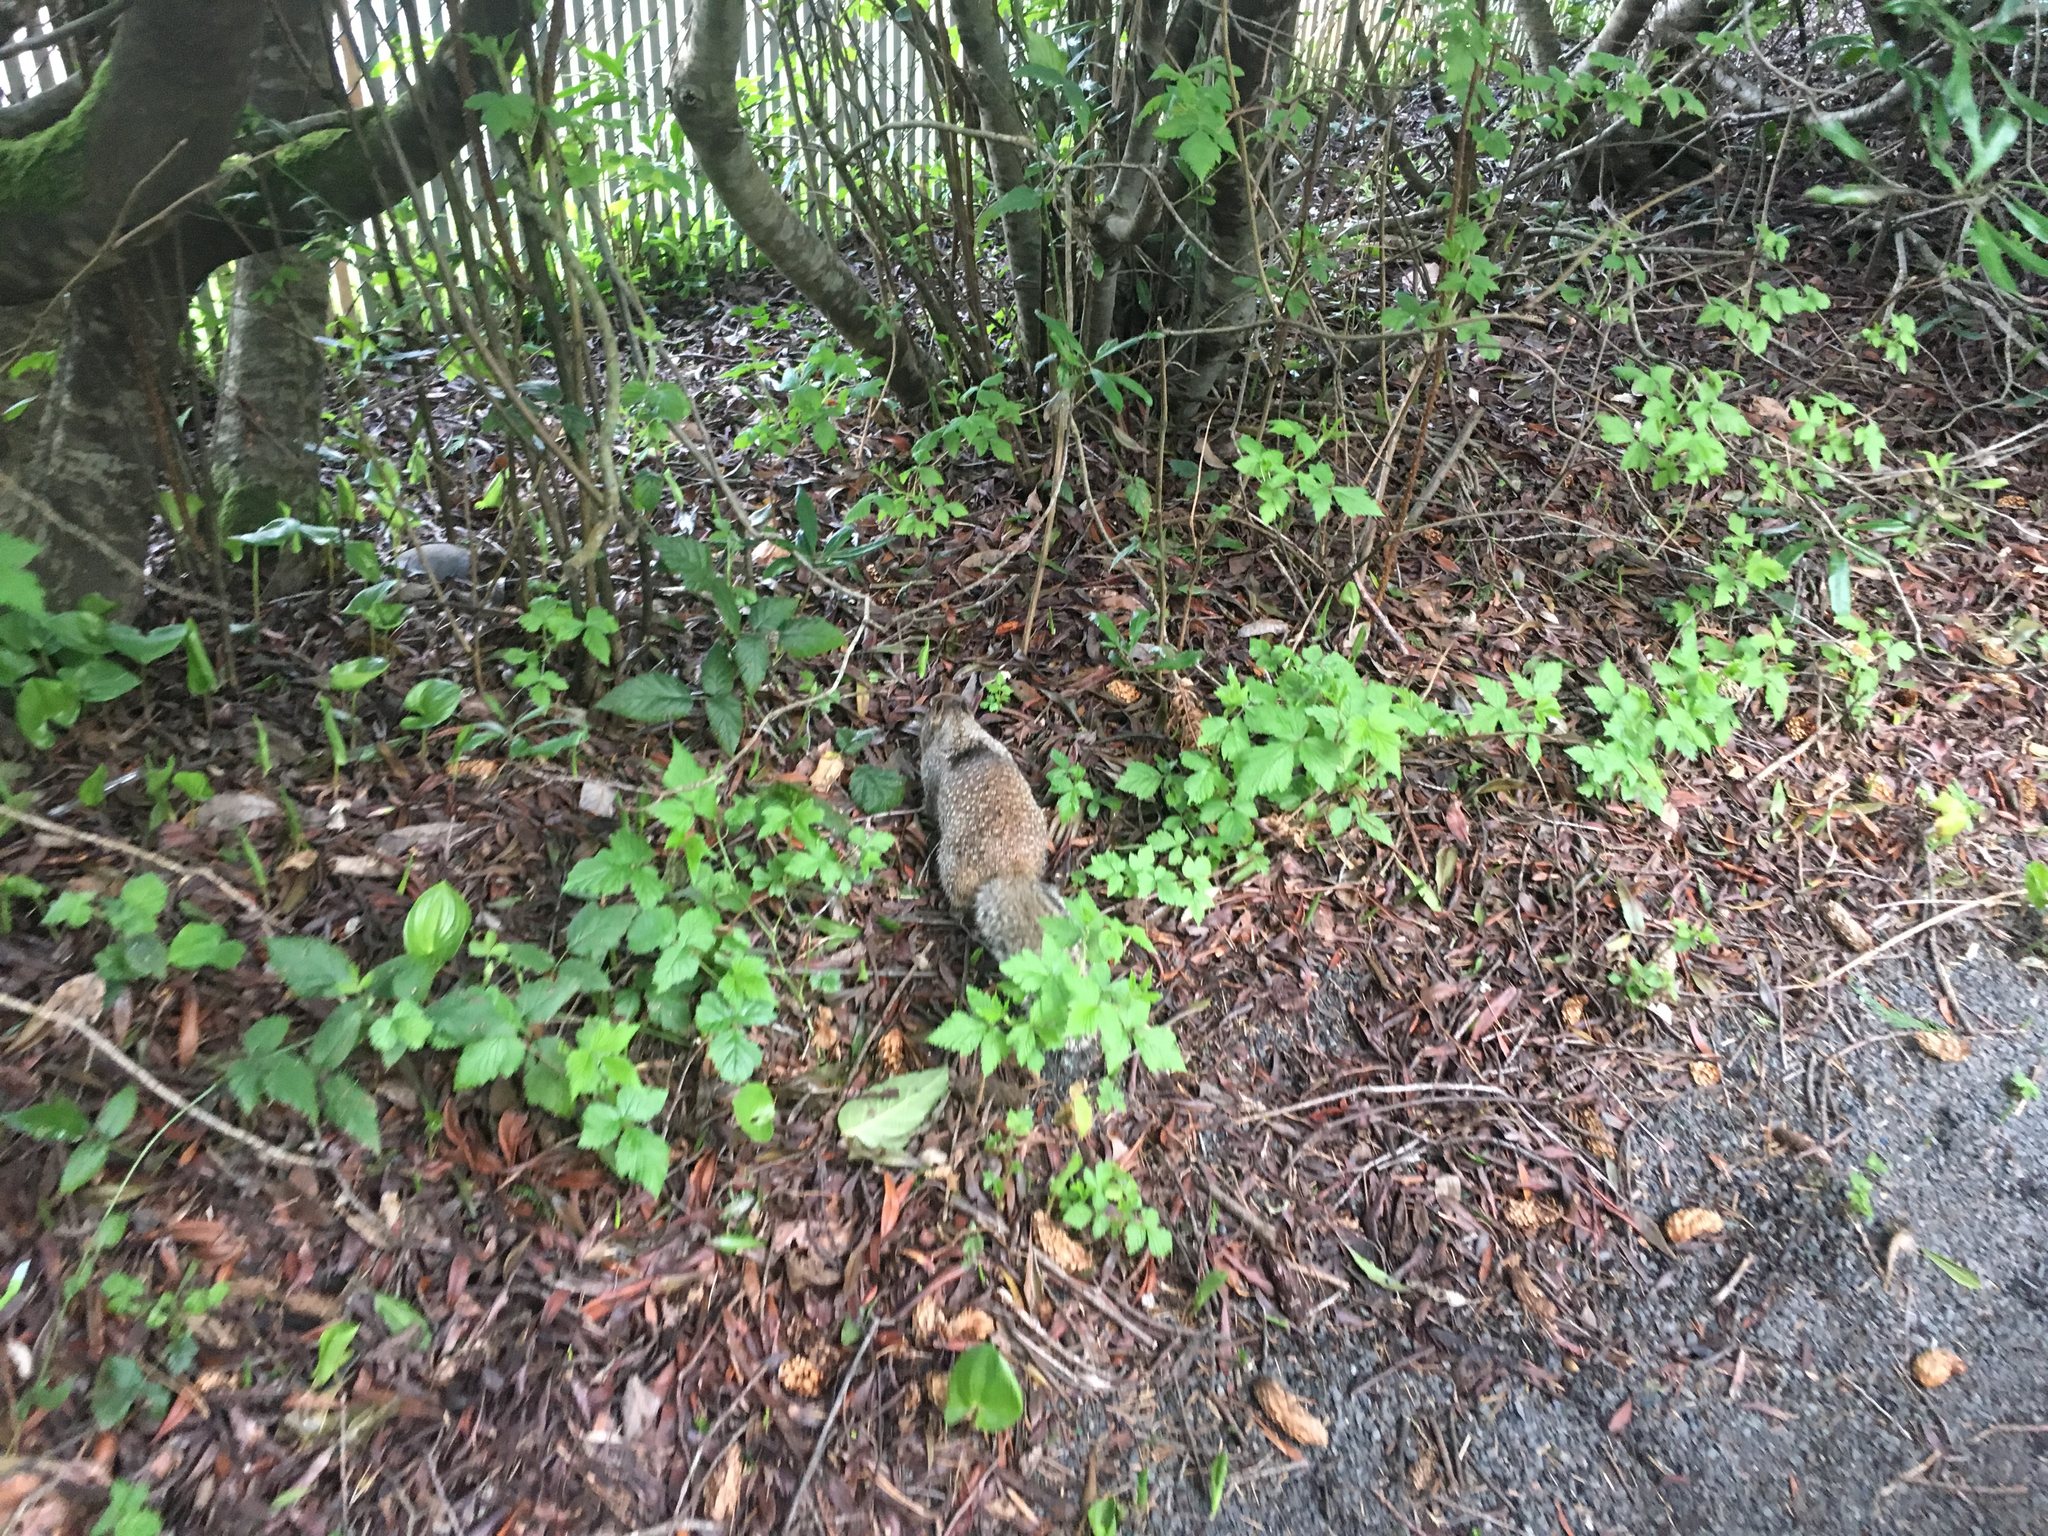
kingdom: Animalia
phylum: Chordata
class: Mammalia
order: Rodentia
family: Sciuridae
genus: Otospermophilus
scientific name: Otospermophilus beecheyi
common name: California ground squirrel
